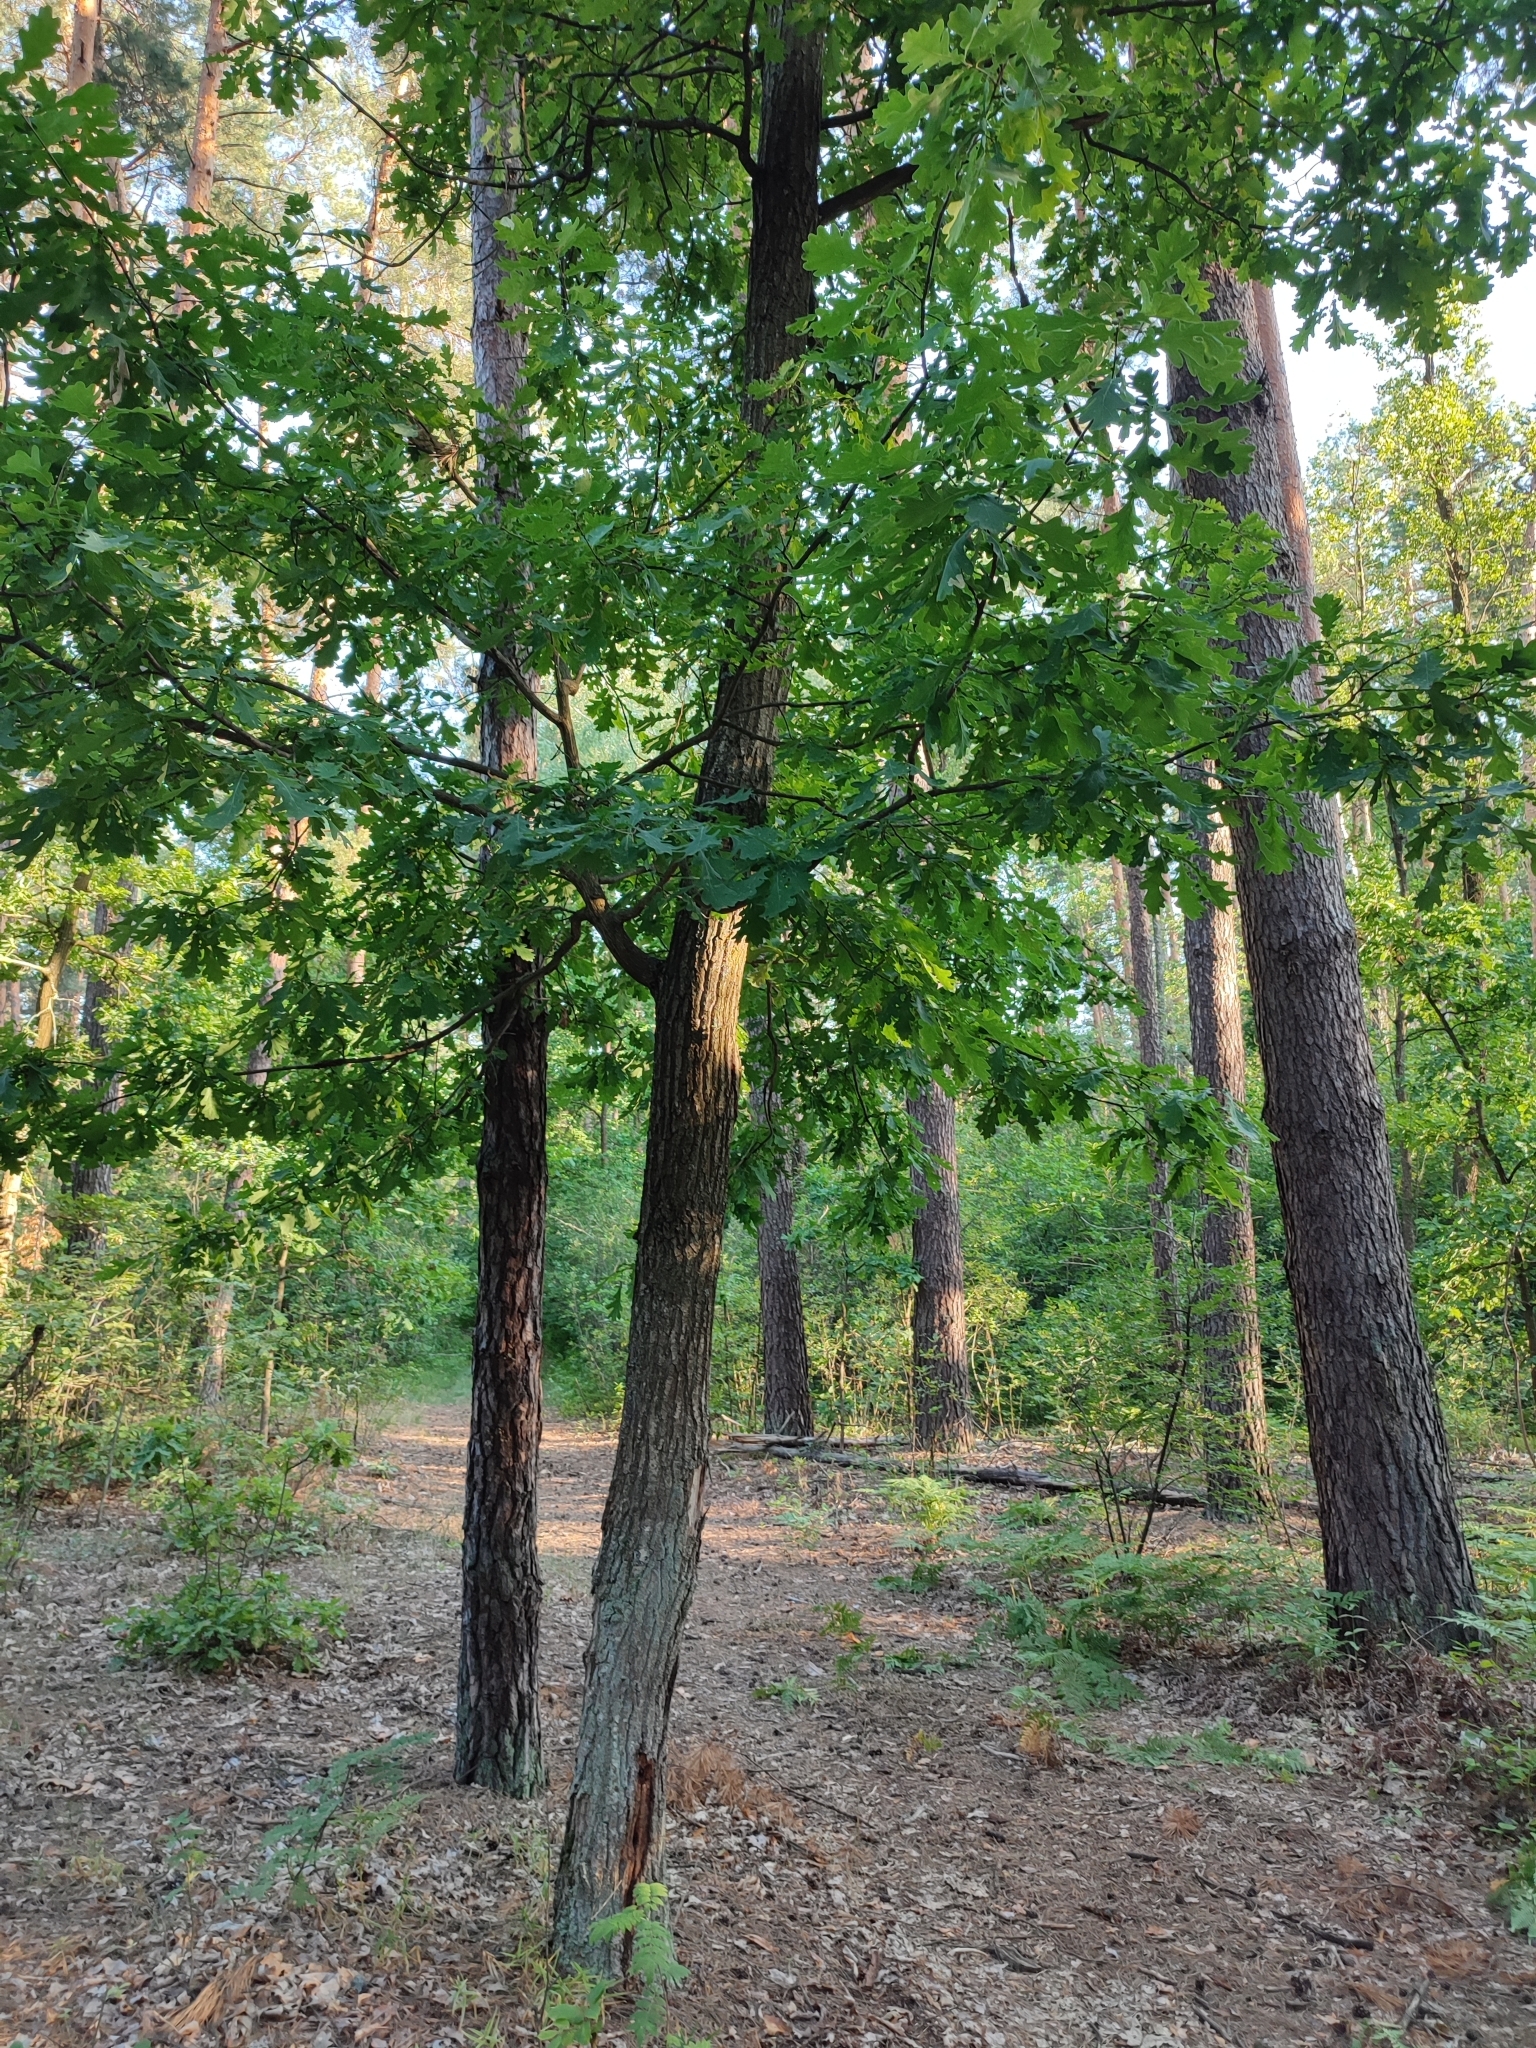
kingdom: Plantae
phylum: Tracheophyta
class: Magnoliopsida
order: Fagales
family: Fagaceae
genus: Quercus
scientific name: Quercus robur
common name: Pedunculate oak
